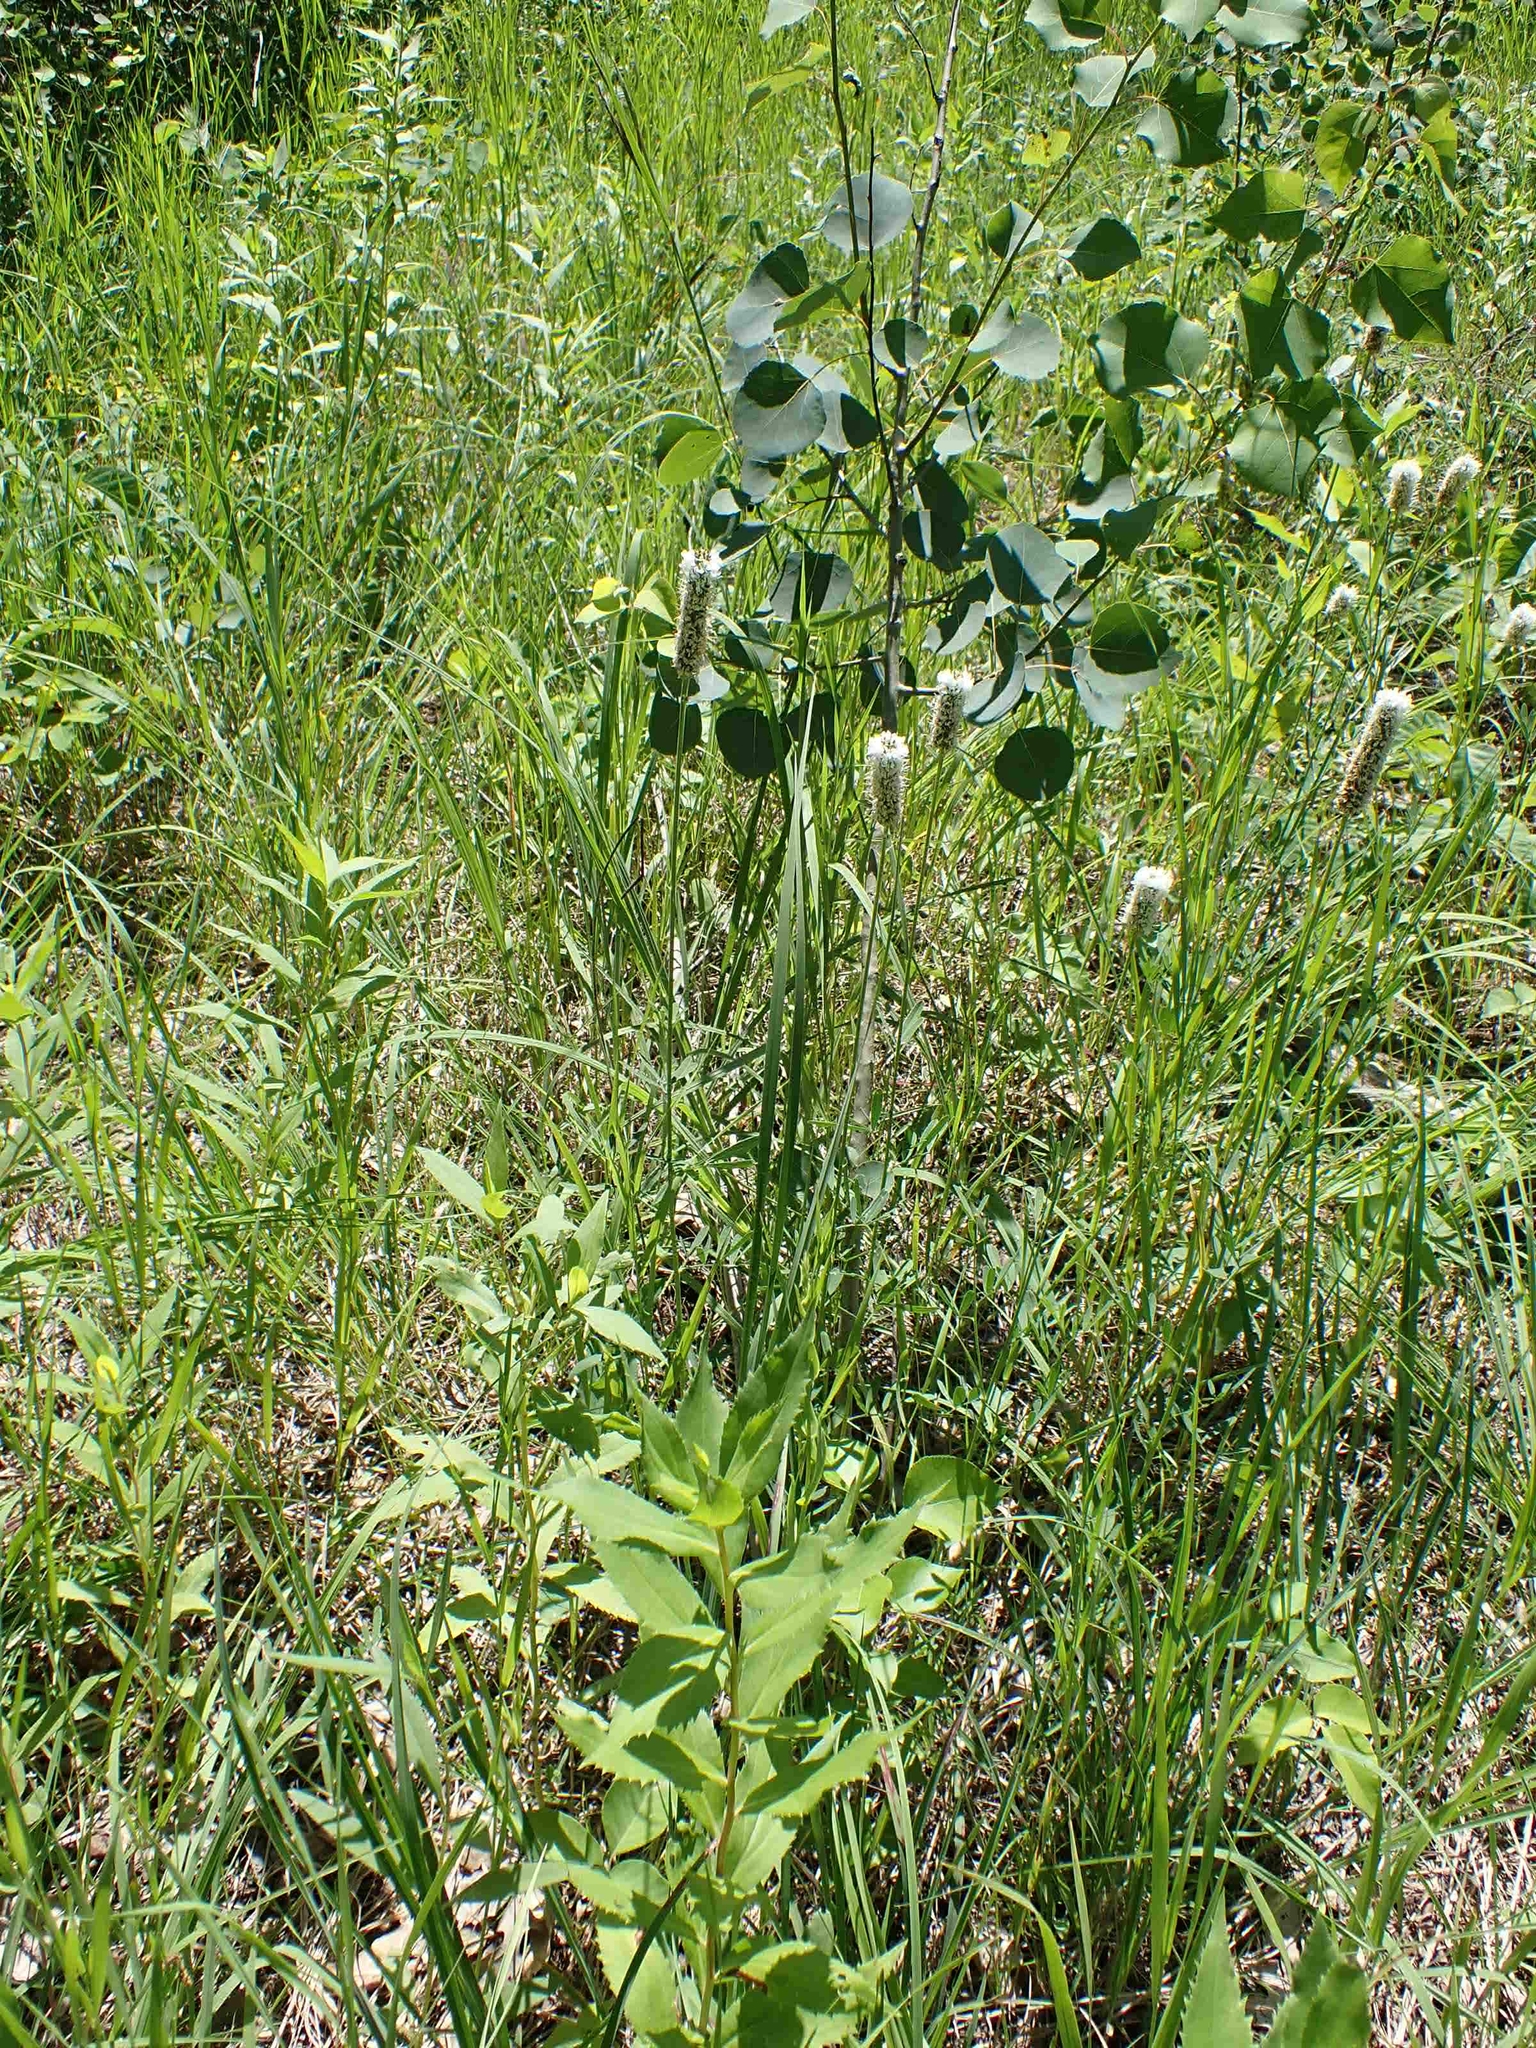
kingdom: Plantae
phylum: Tracheophyta
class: Magnoliopsida
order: Fabales
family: Fabaceae
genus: Dalea
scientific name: Dalea candida
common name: White prairie-clover
